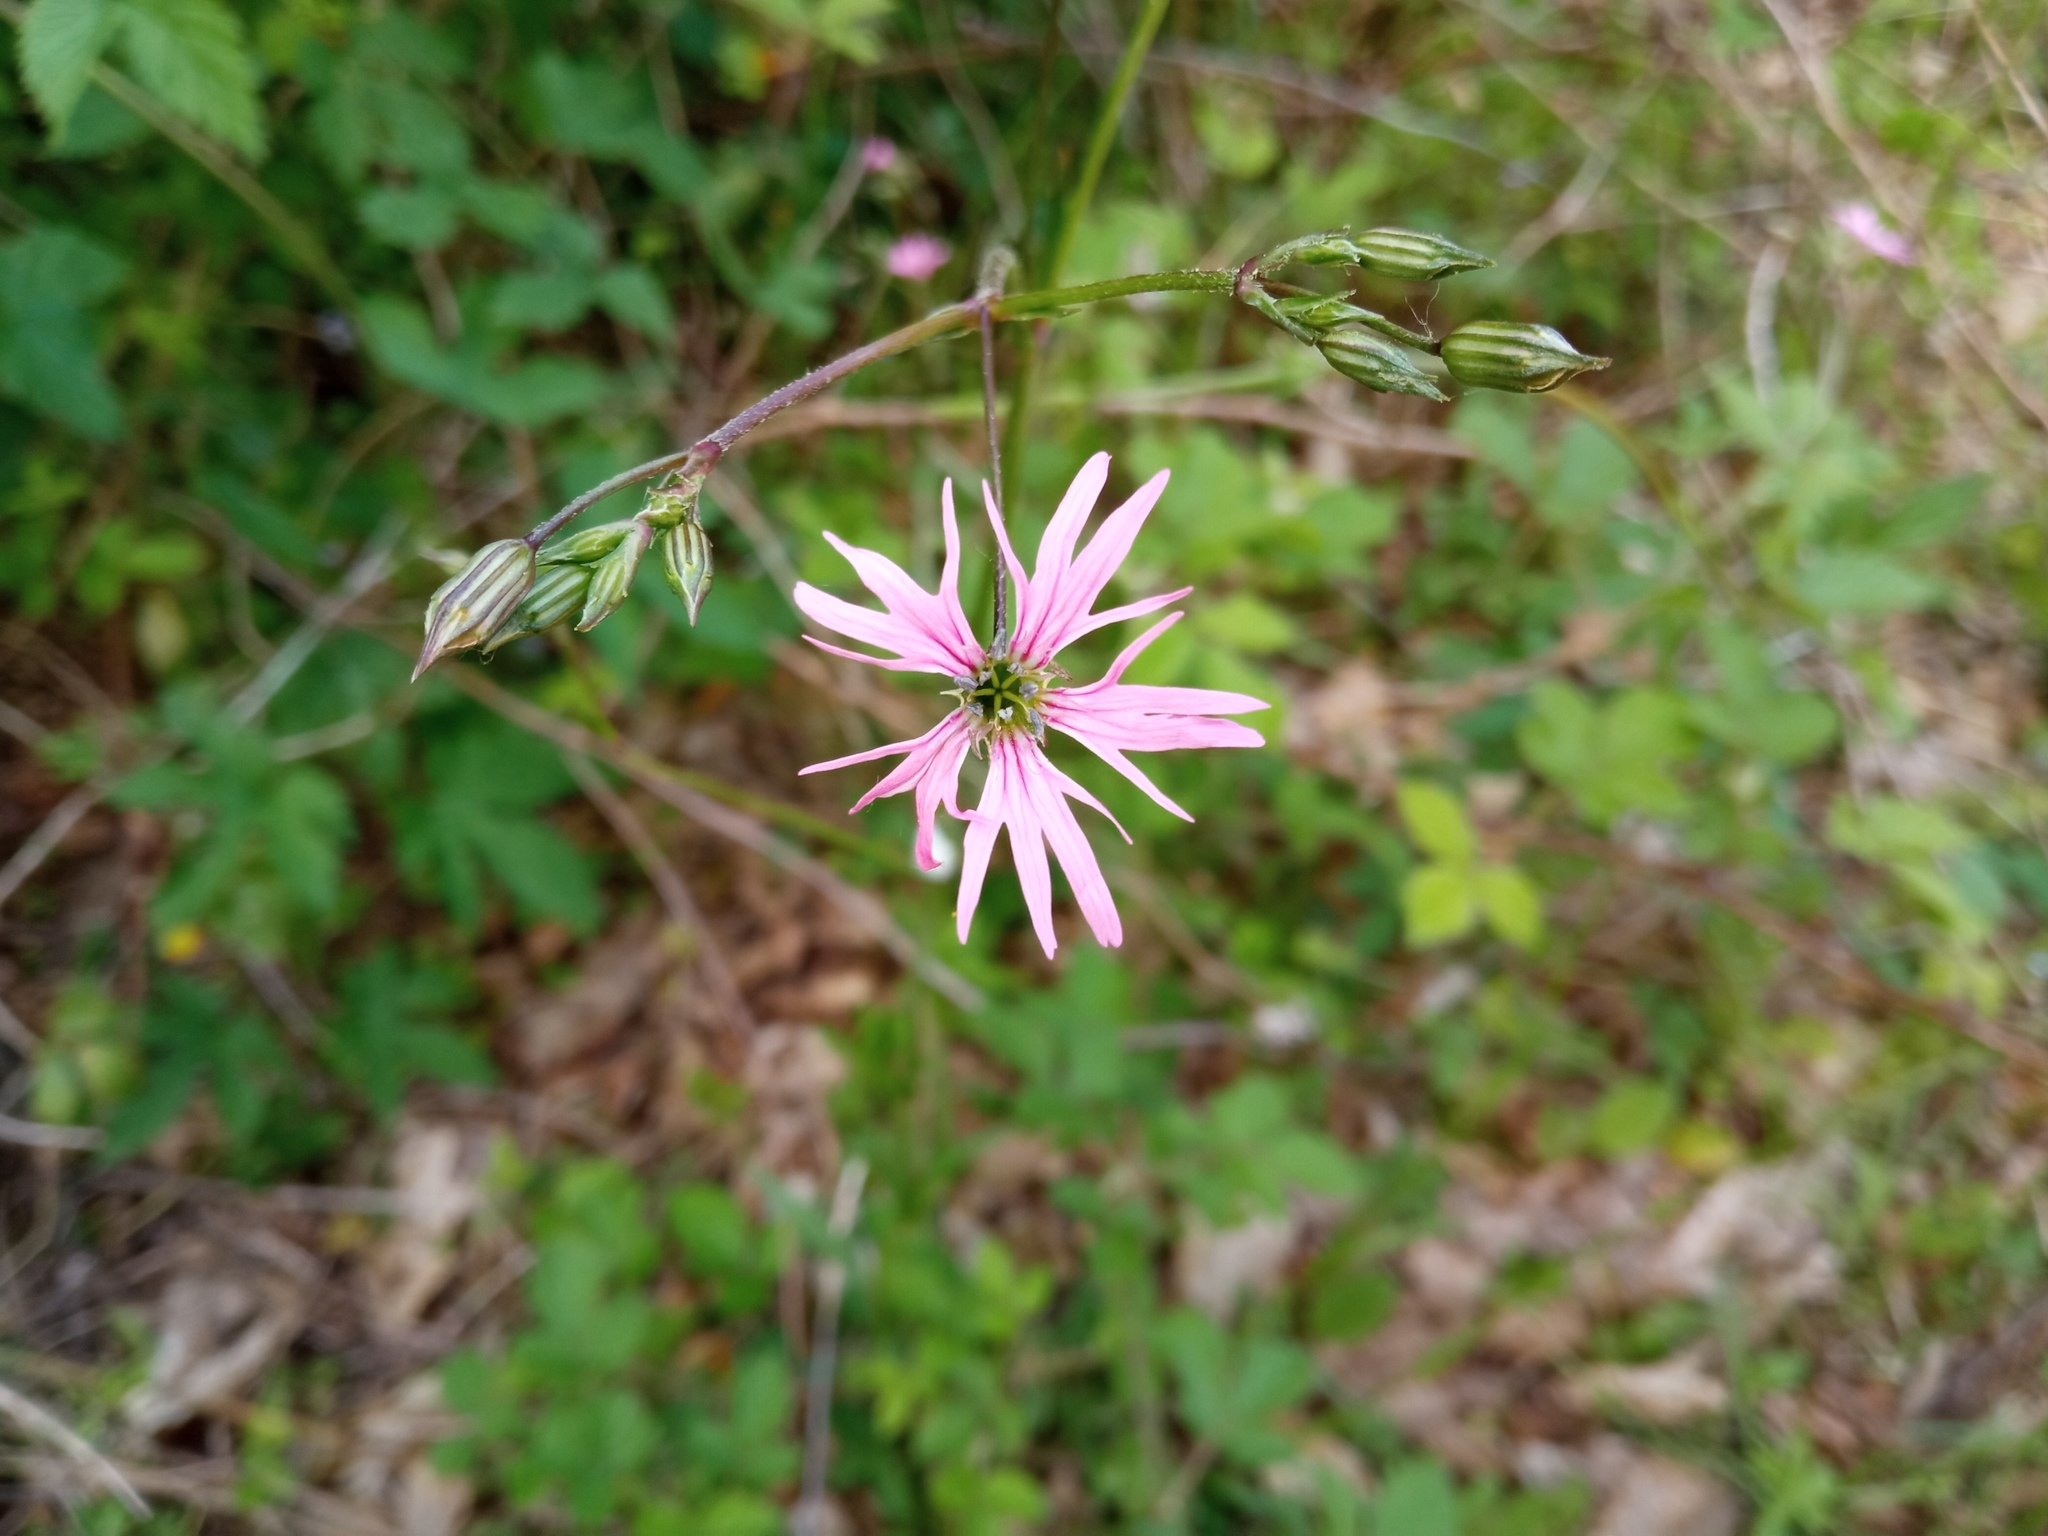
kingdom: Plantae
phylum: Tracheophyta
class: Magnoliopsida
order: Caryophyllales
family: Caryophyllaceae
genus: Silene
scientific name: Silene flos-cuculi
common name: Ragged-robin
